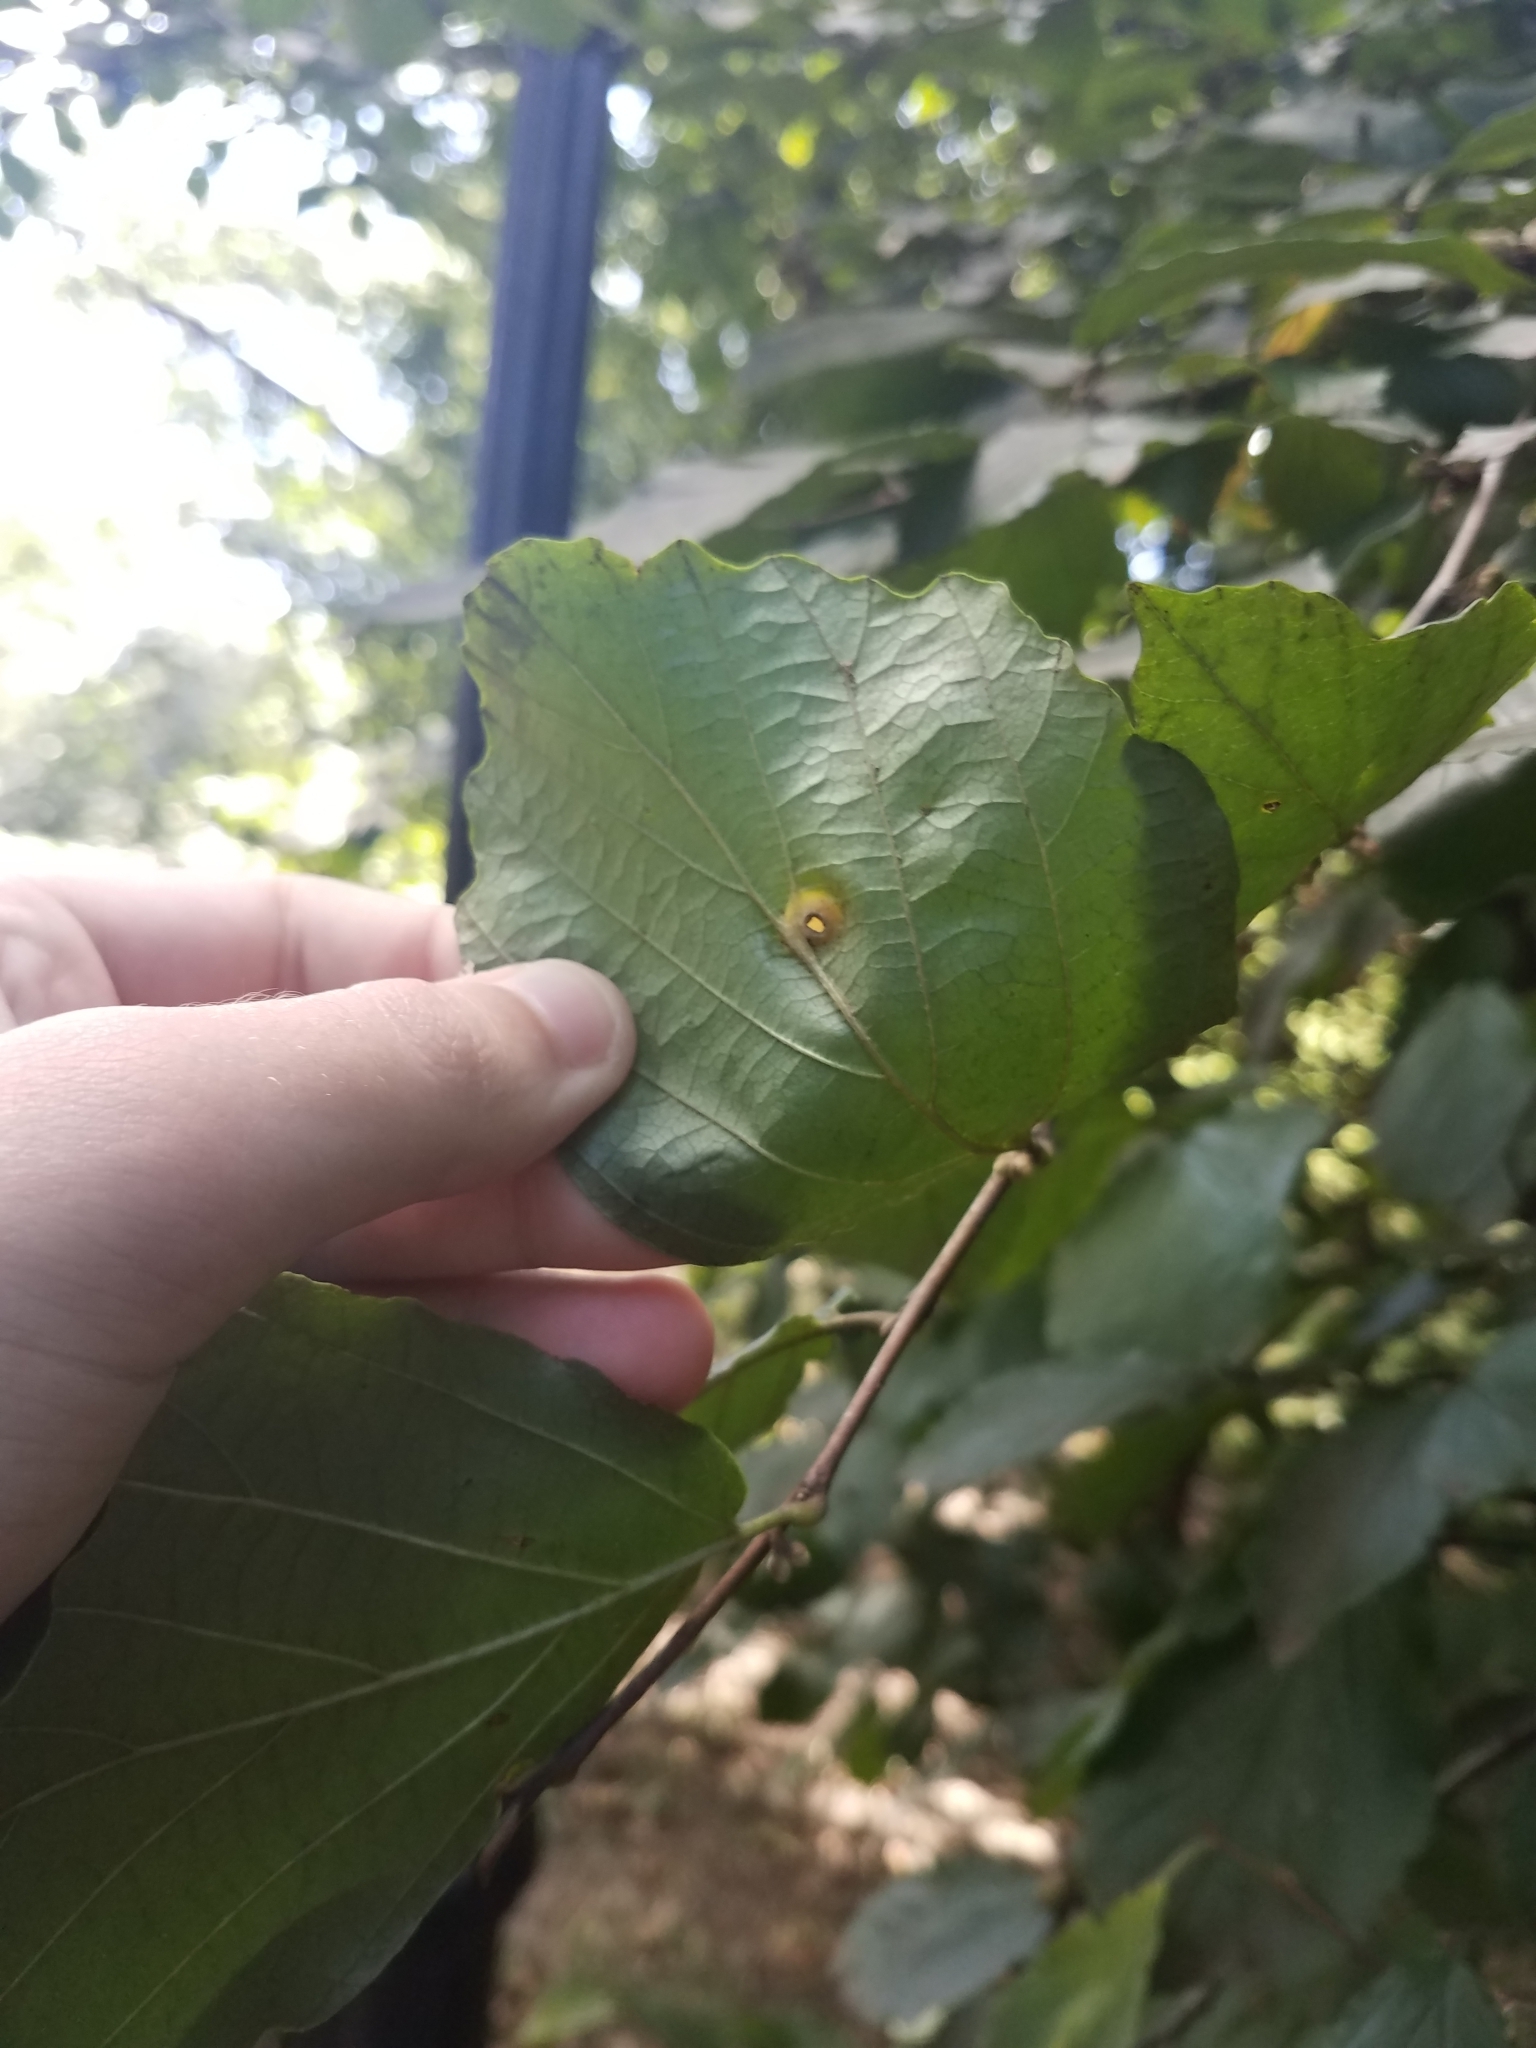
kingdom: Animalia
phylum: Arthropoda
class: Insecta
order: Hemiptera
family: Aphididae
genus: Hormaphis
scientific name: Hormaphis hamamelidis
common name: Witch-hazel cone gall aphid
